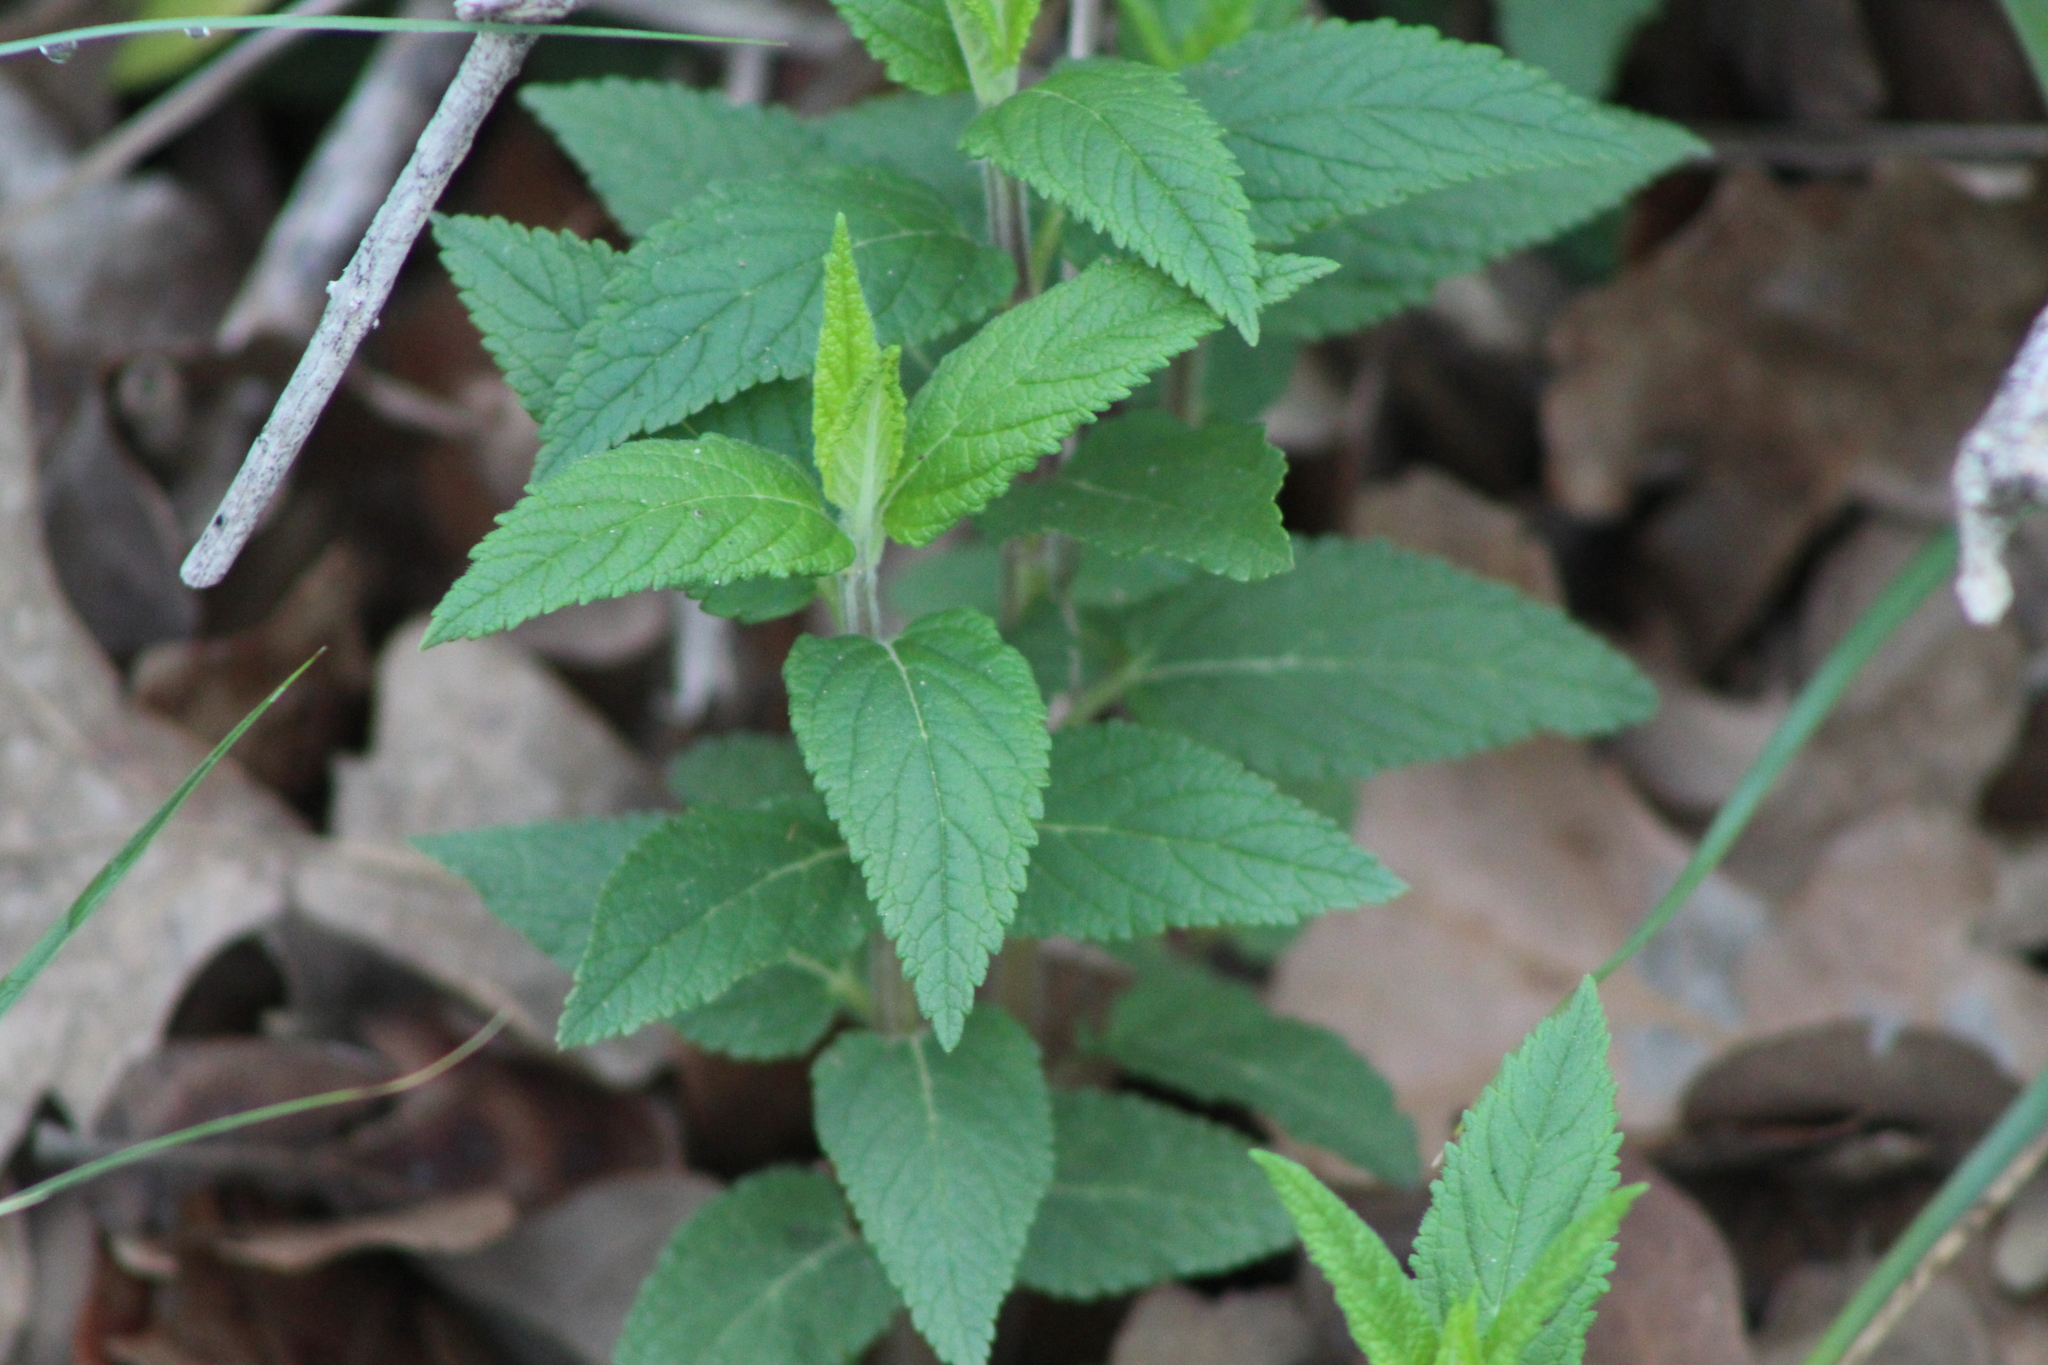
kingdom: Plantae
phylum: Tracheophyta
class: Magnoliopsida
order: Lamiales
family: Lamiaceae
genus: Teucrium
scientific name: Teucrium canadense
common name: American germander
